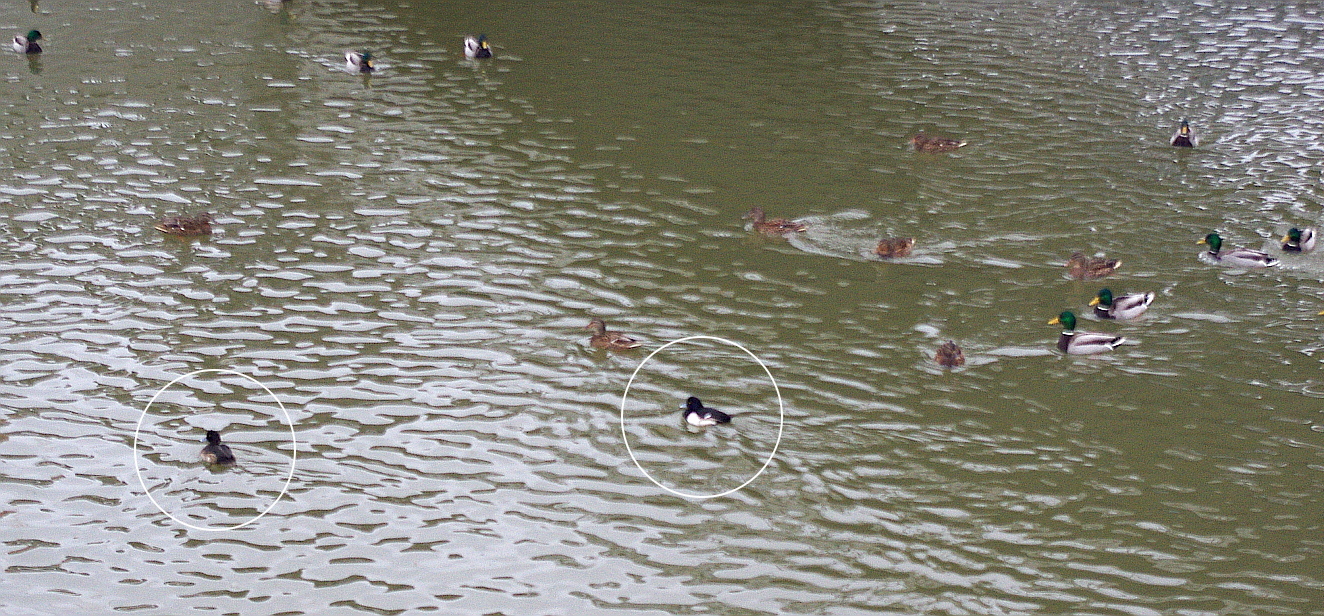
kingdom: Animalia
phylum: Chordata
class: Aves
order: Anseriformes
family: Anatidae
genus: Aythya
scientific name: Aythya fuligula
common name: Tufted duck
